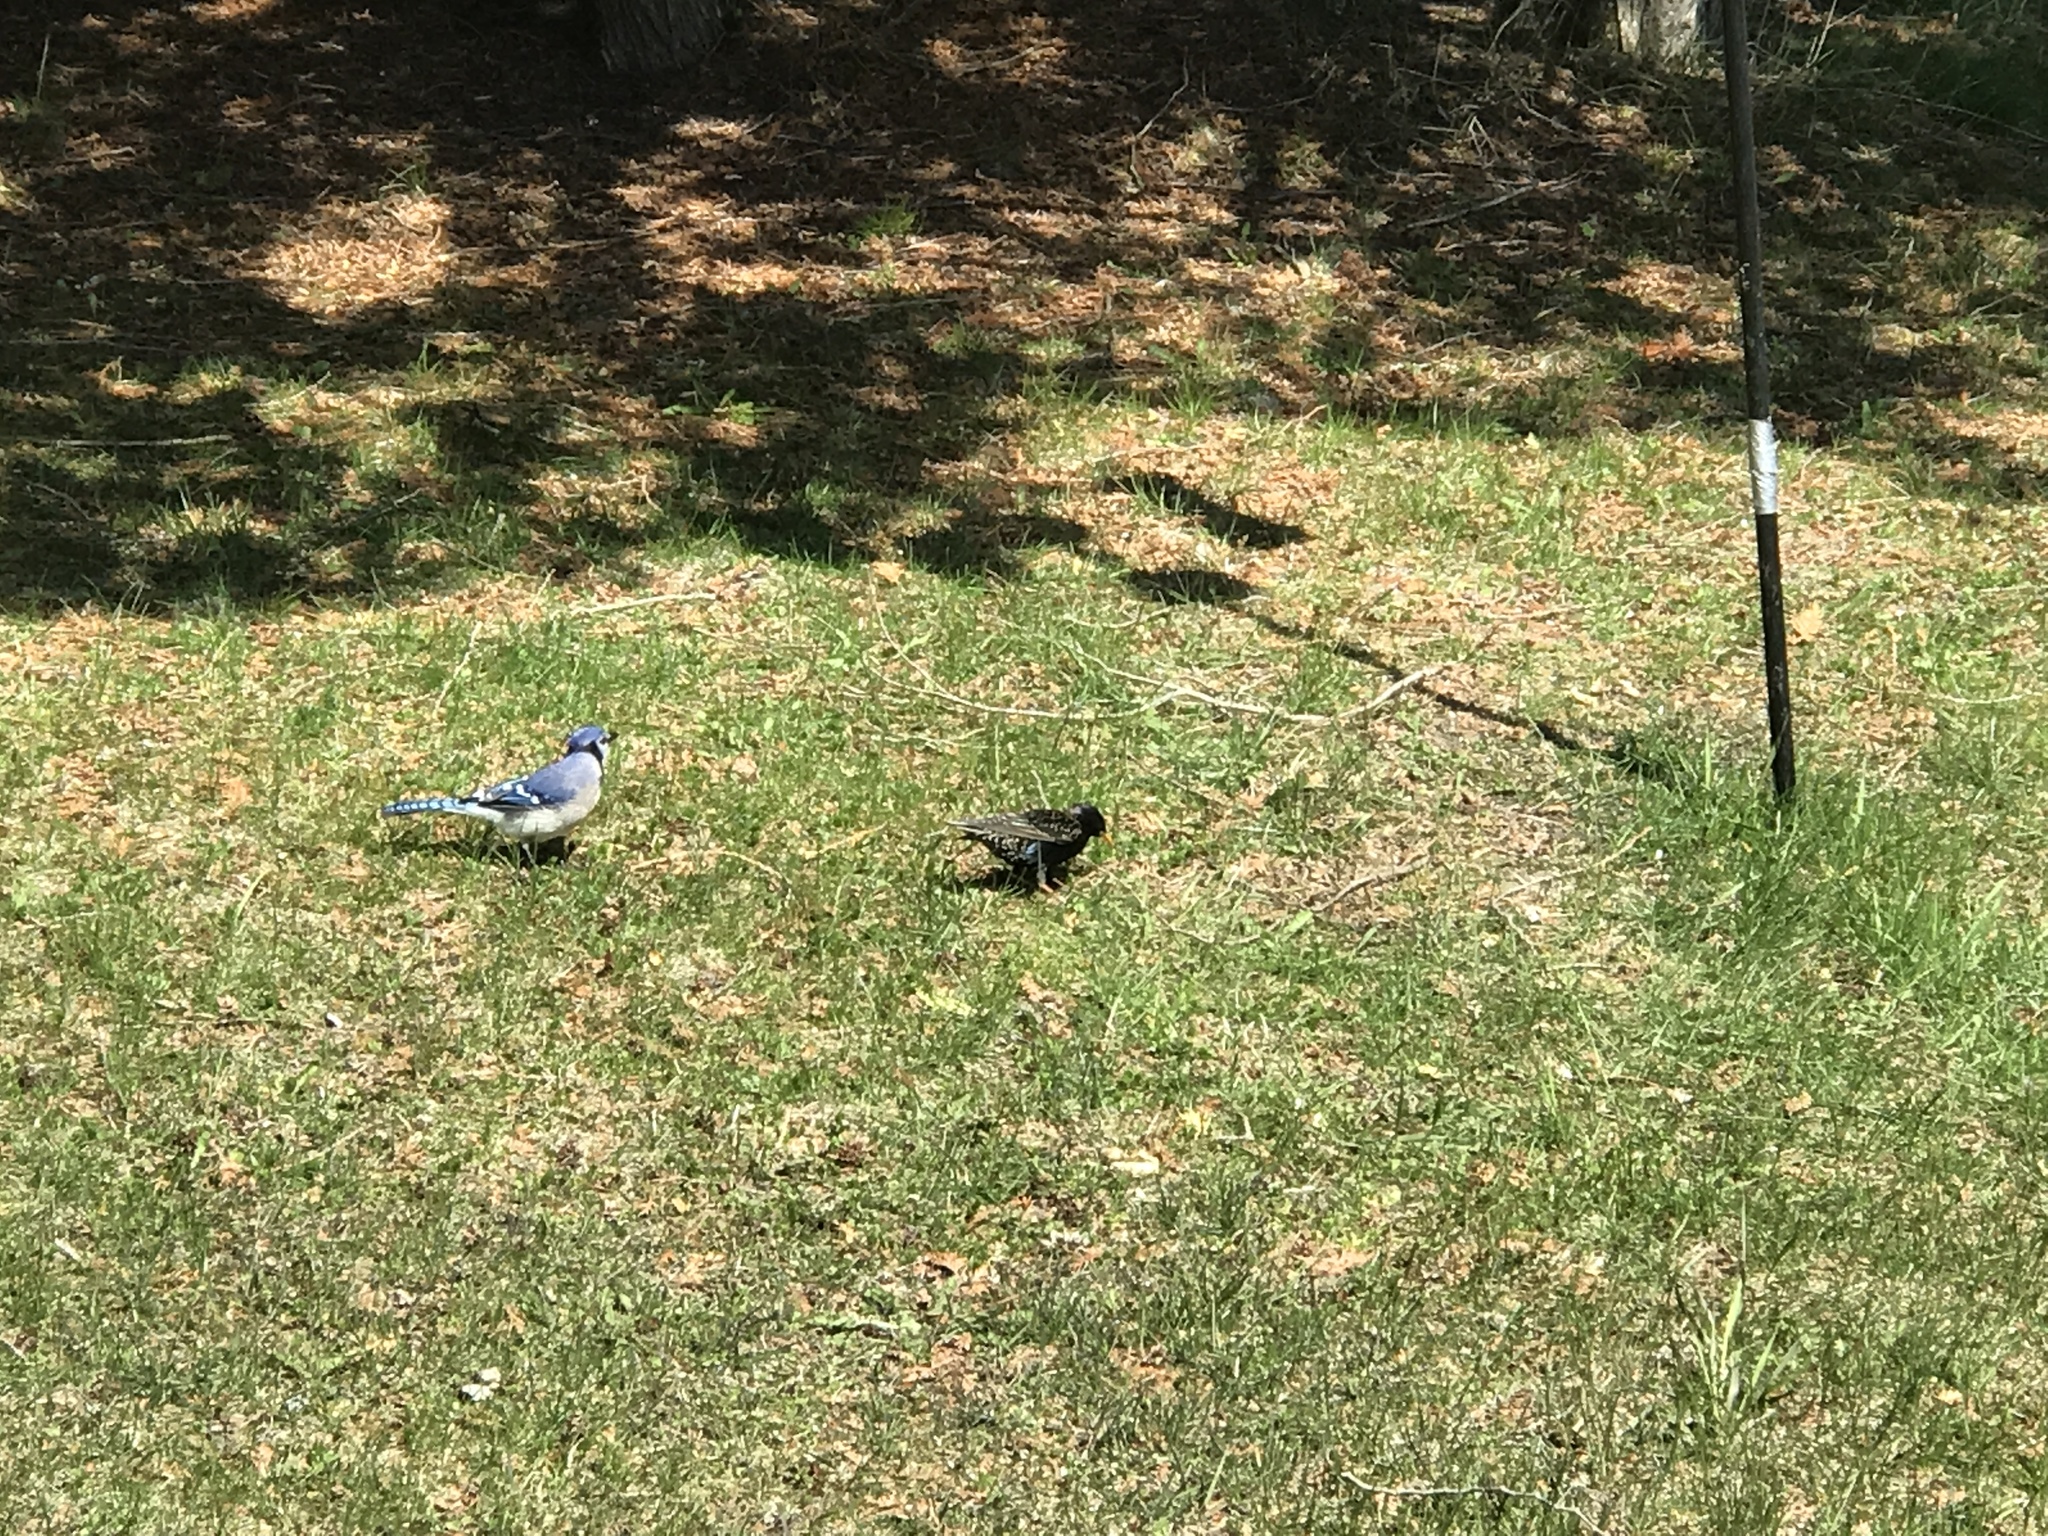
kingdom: Animalia
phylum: Chordata
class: Aves
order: Passeriformes
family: Sturnidae
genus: Sturnus
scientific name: Sturnus vulgaris
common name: Common starling
